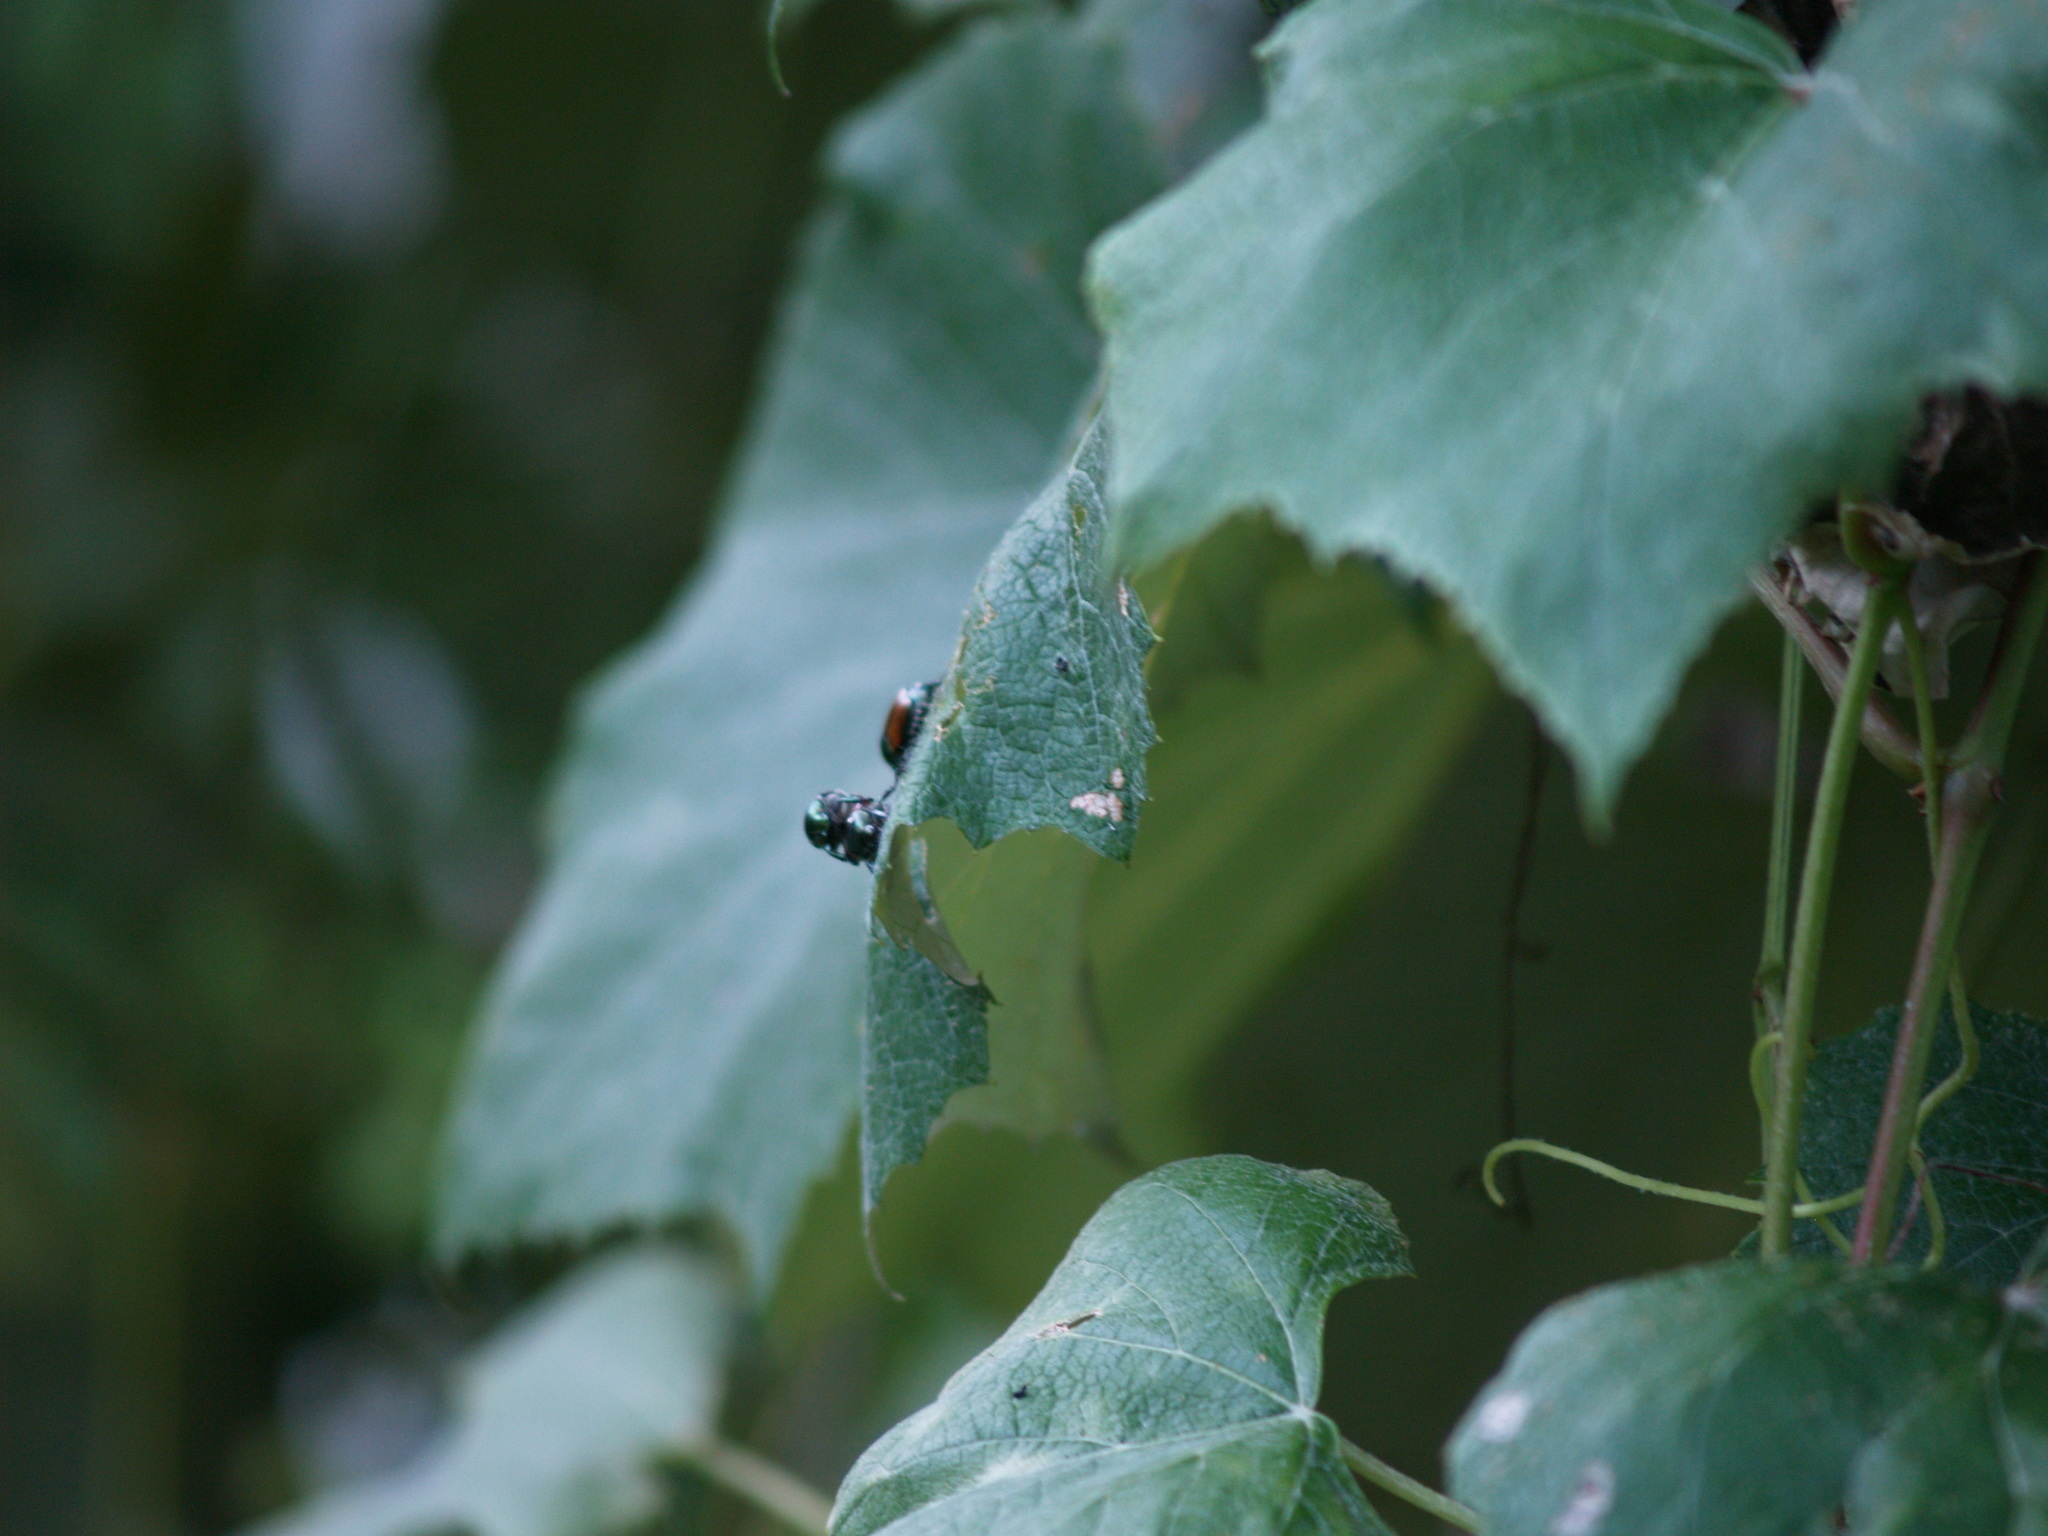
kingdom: Animalia
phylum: Arthropoda
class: Insecta
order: Coleoptera
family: Scarabaeidae
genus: Popillia
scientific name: Popillia japonica
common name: Japanese beetle
